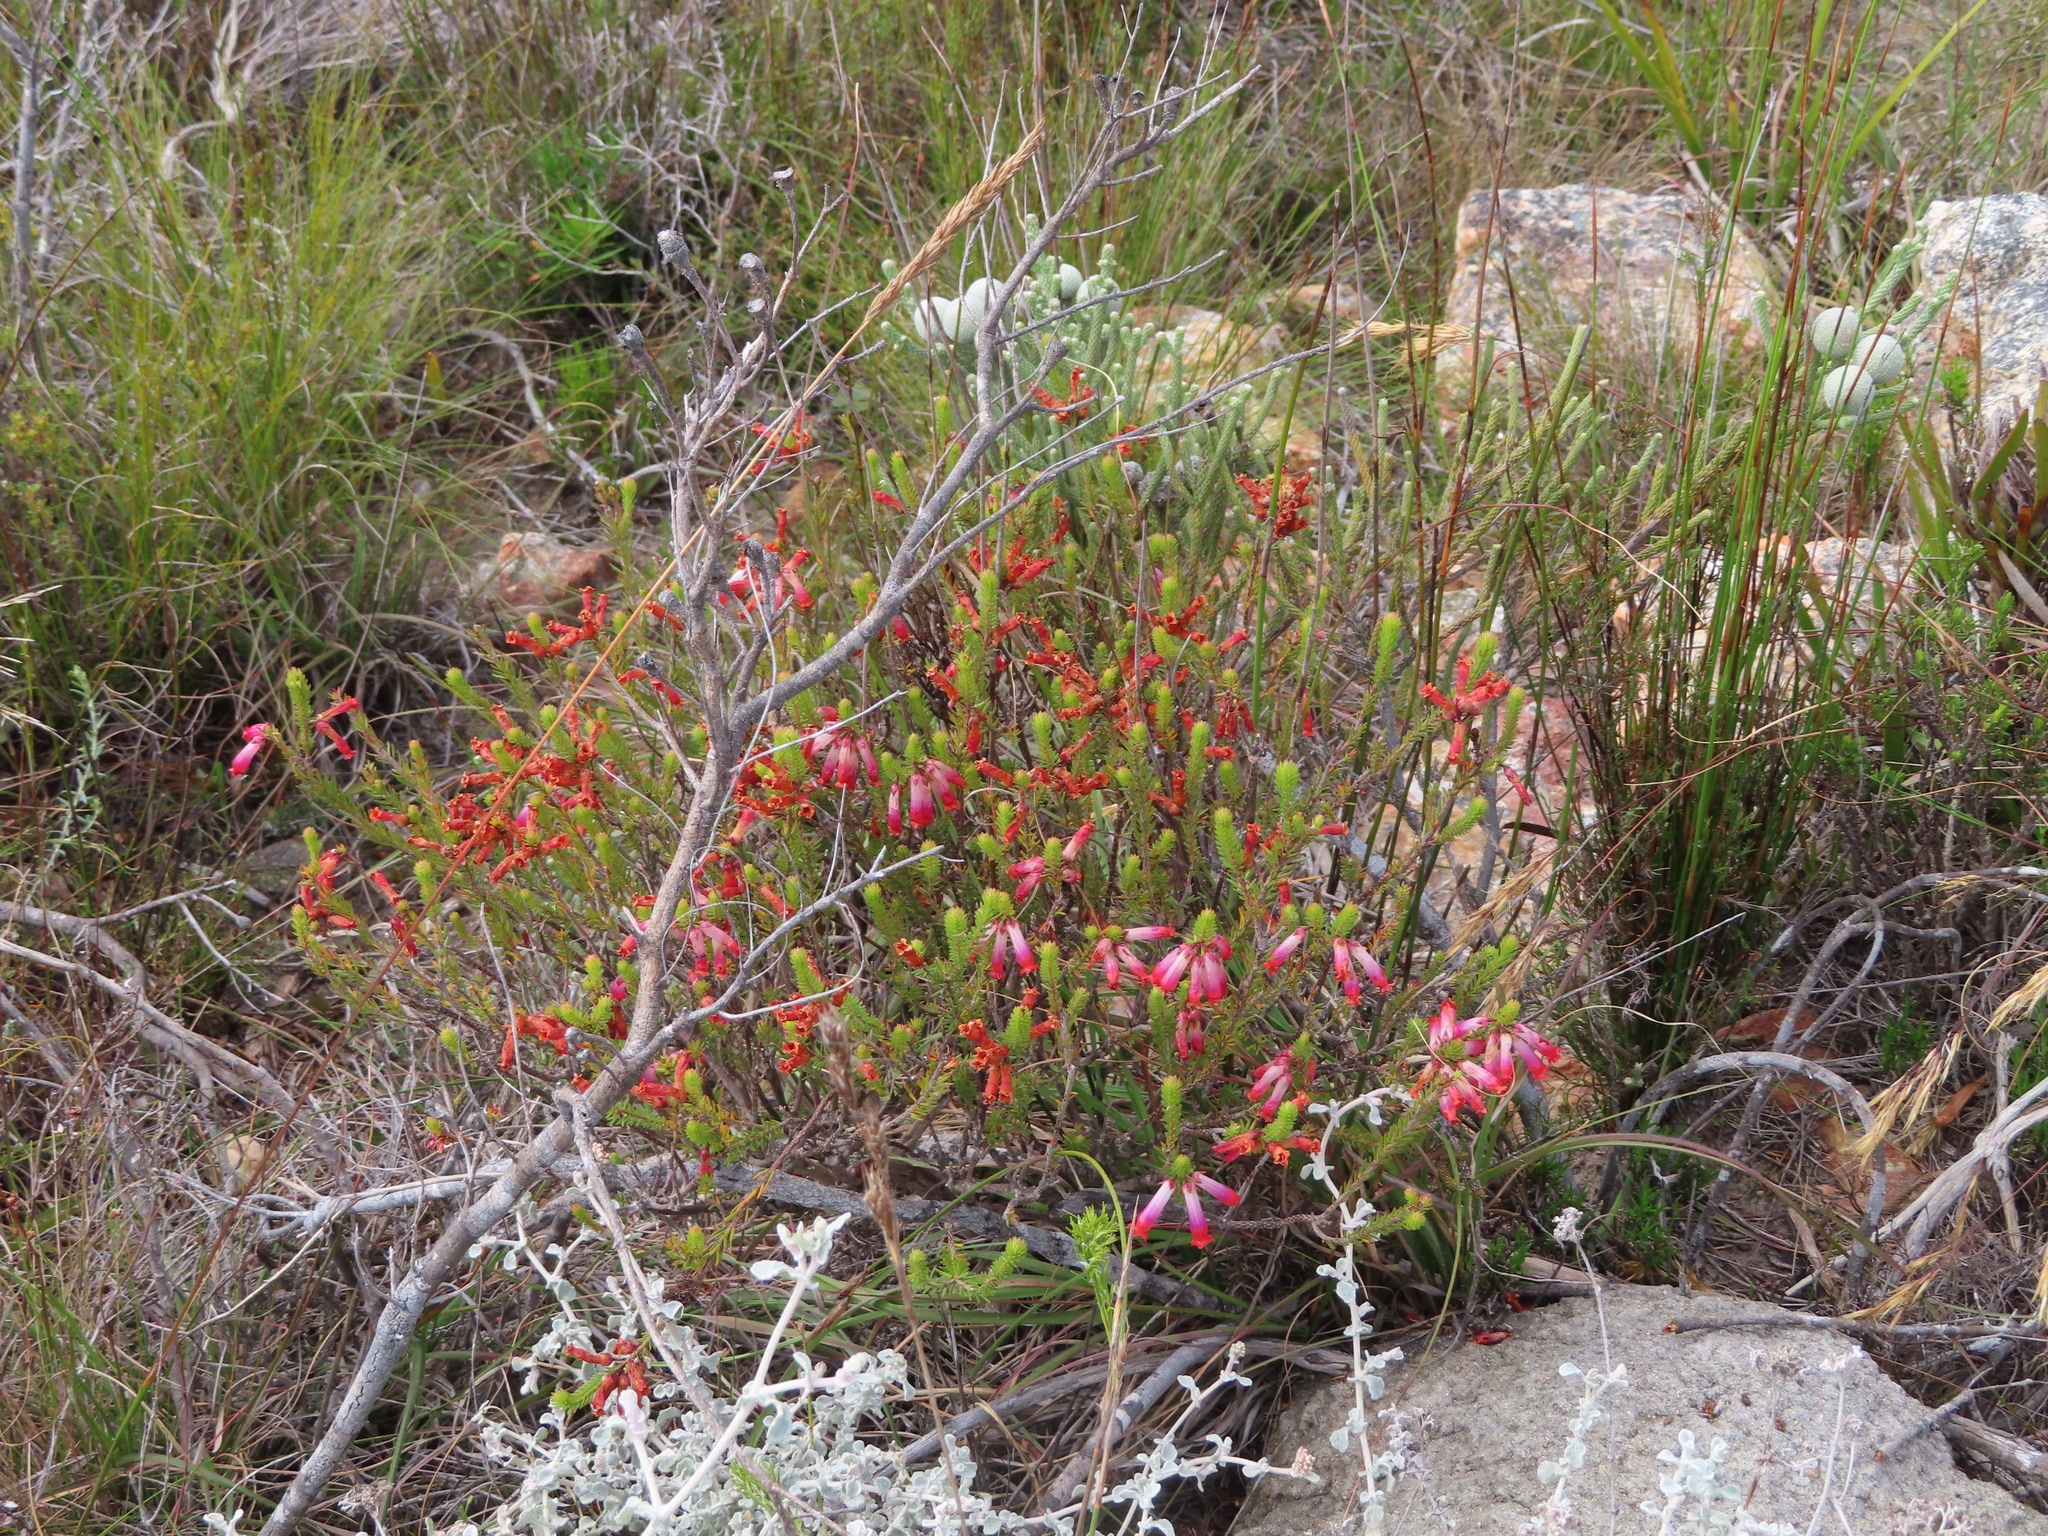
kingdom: Plantae
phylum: Tracheophyta
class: Magnoliopsida
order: Ericales
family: Ericaceae
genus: Erica
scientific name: Erica regia
